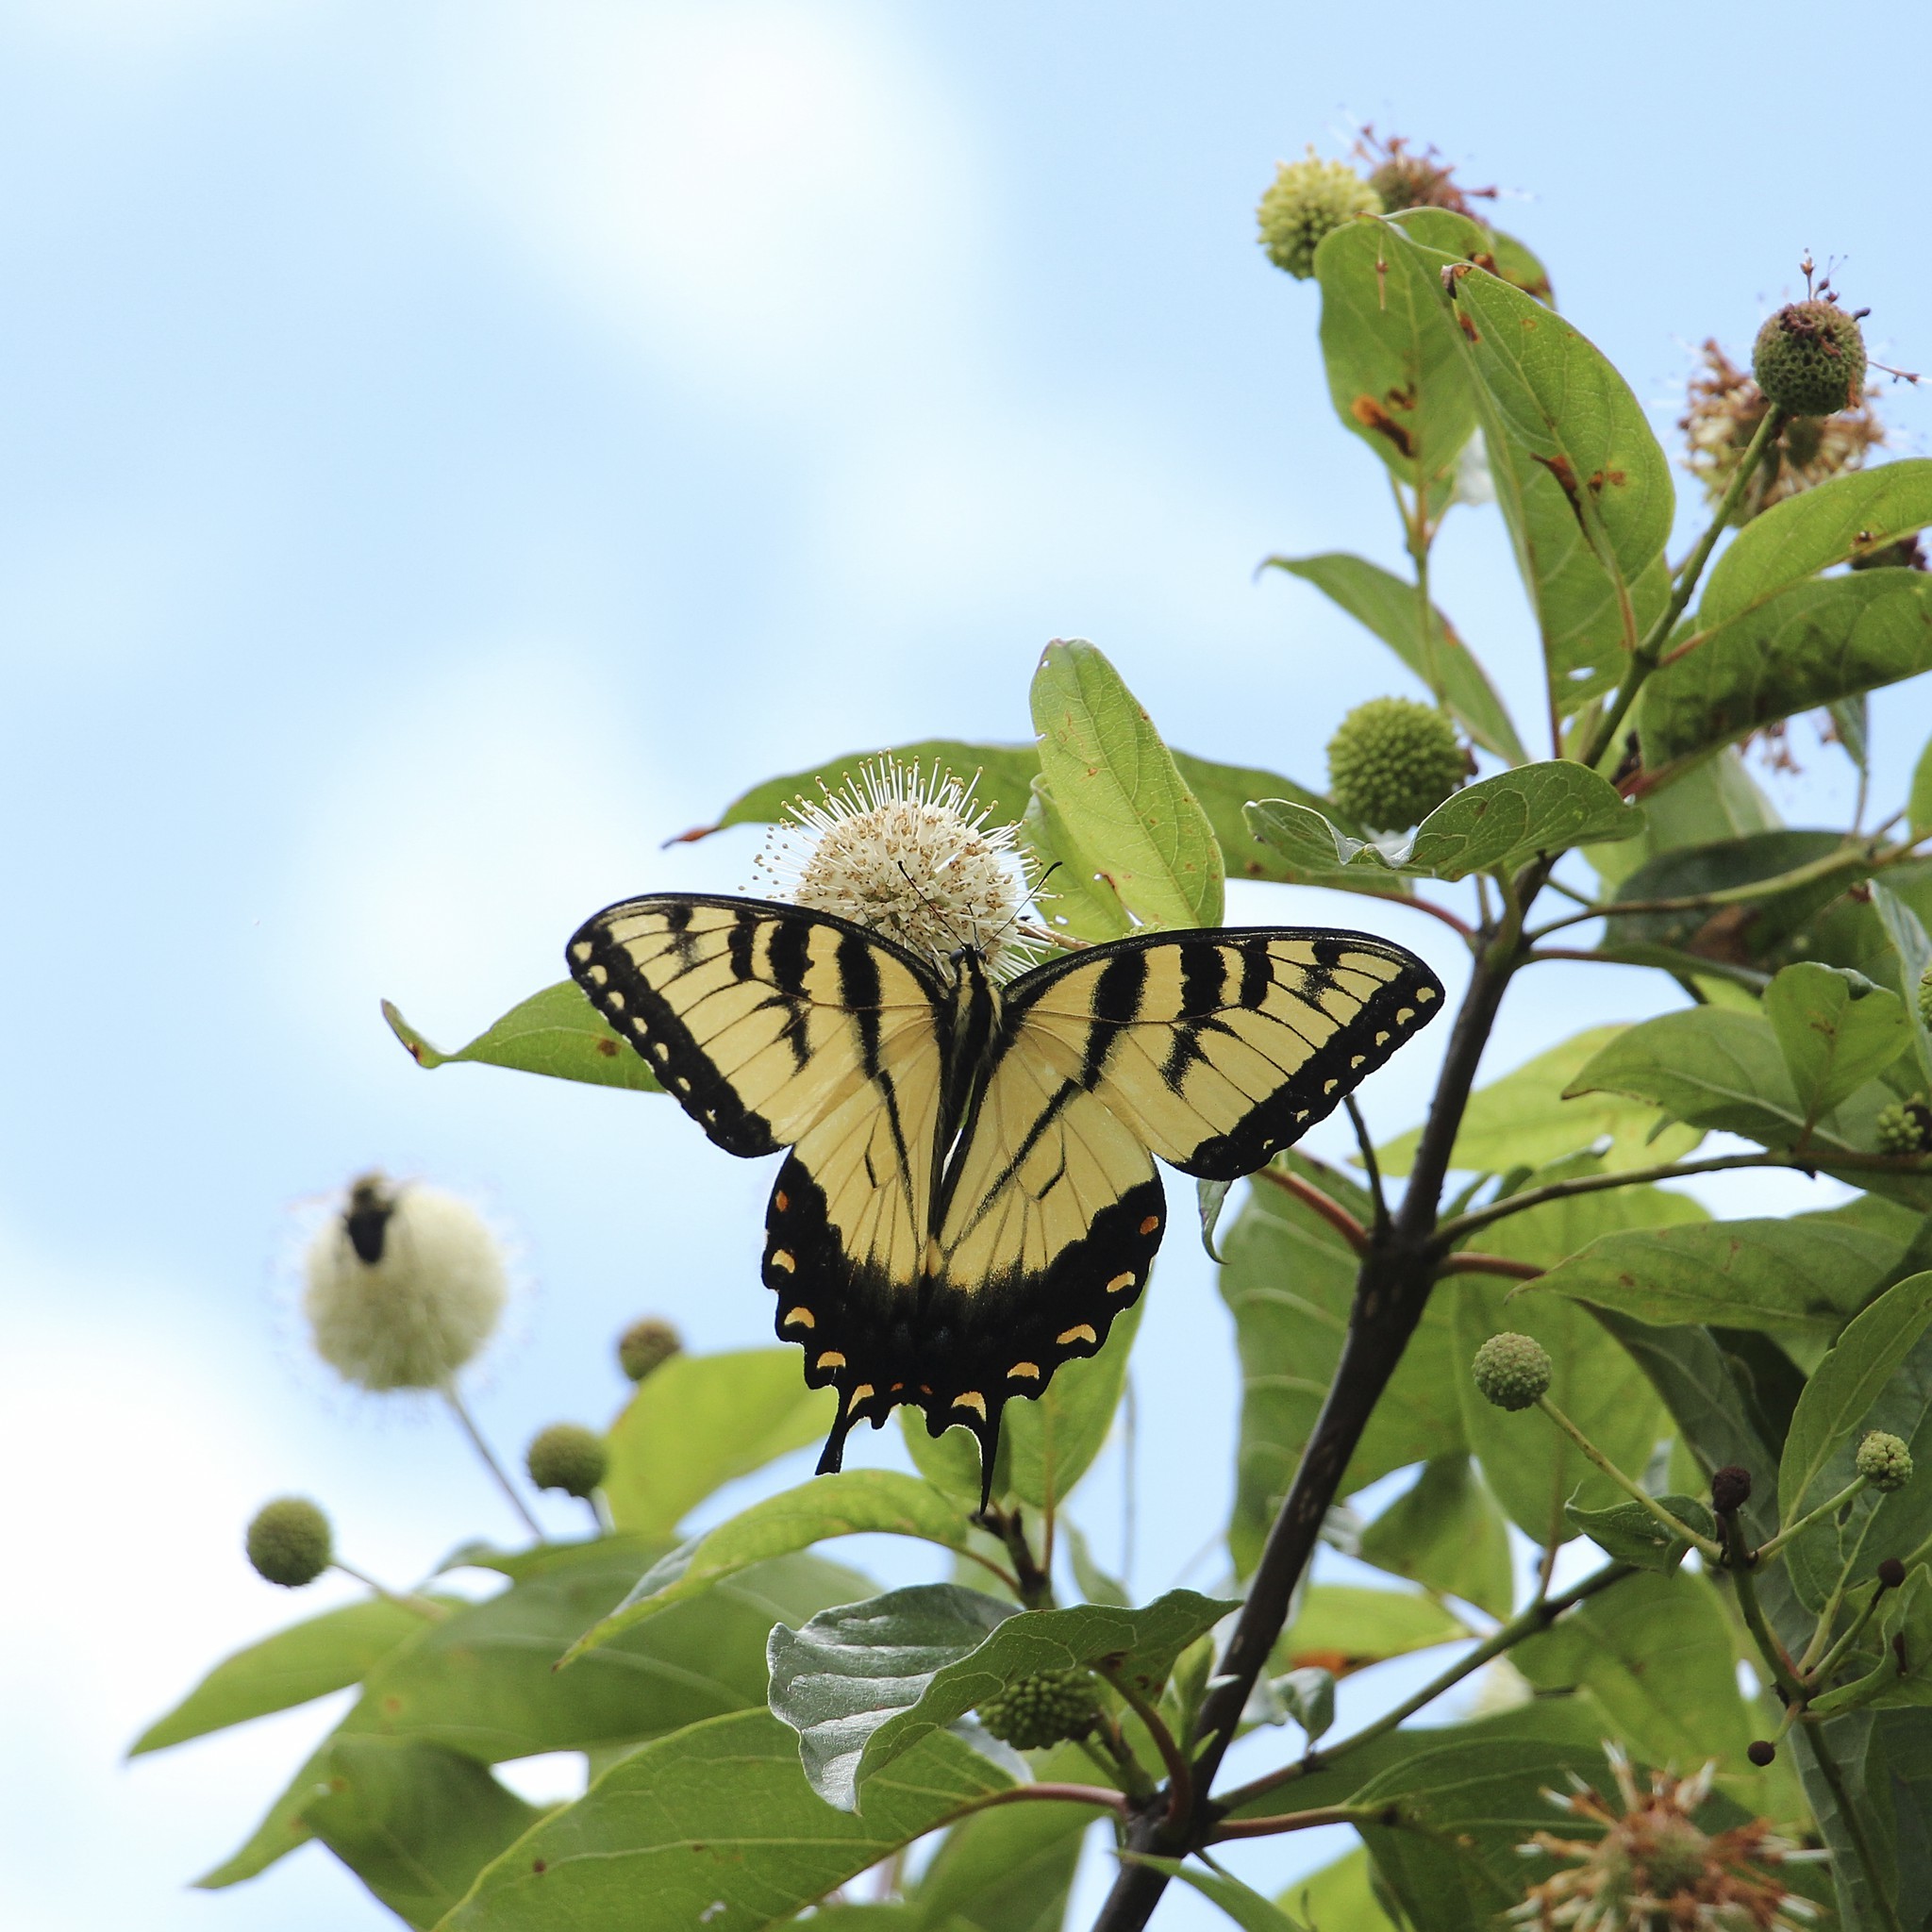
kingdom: Animalia
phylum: Arthropoda
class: Insecta
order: Lepidoptera
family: Papilionidae
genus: Papilio
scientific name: Papilio glaucus
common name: Tiger swallowtail
